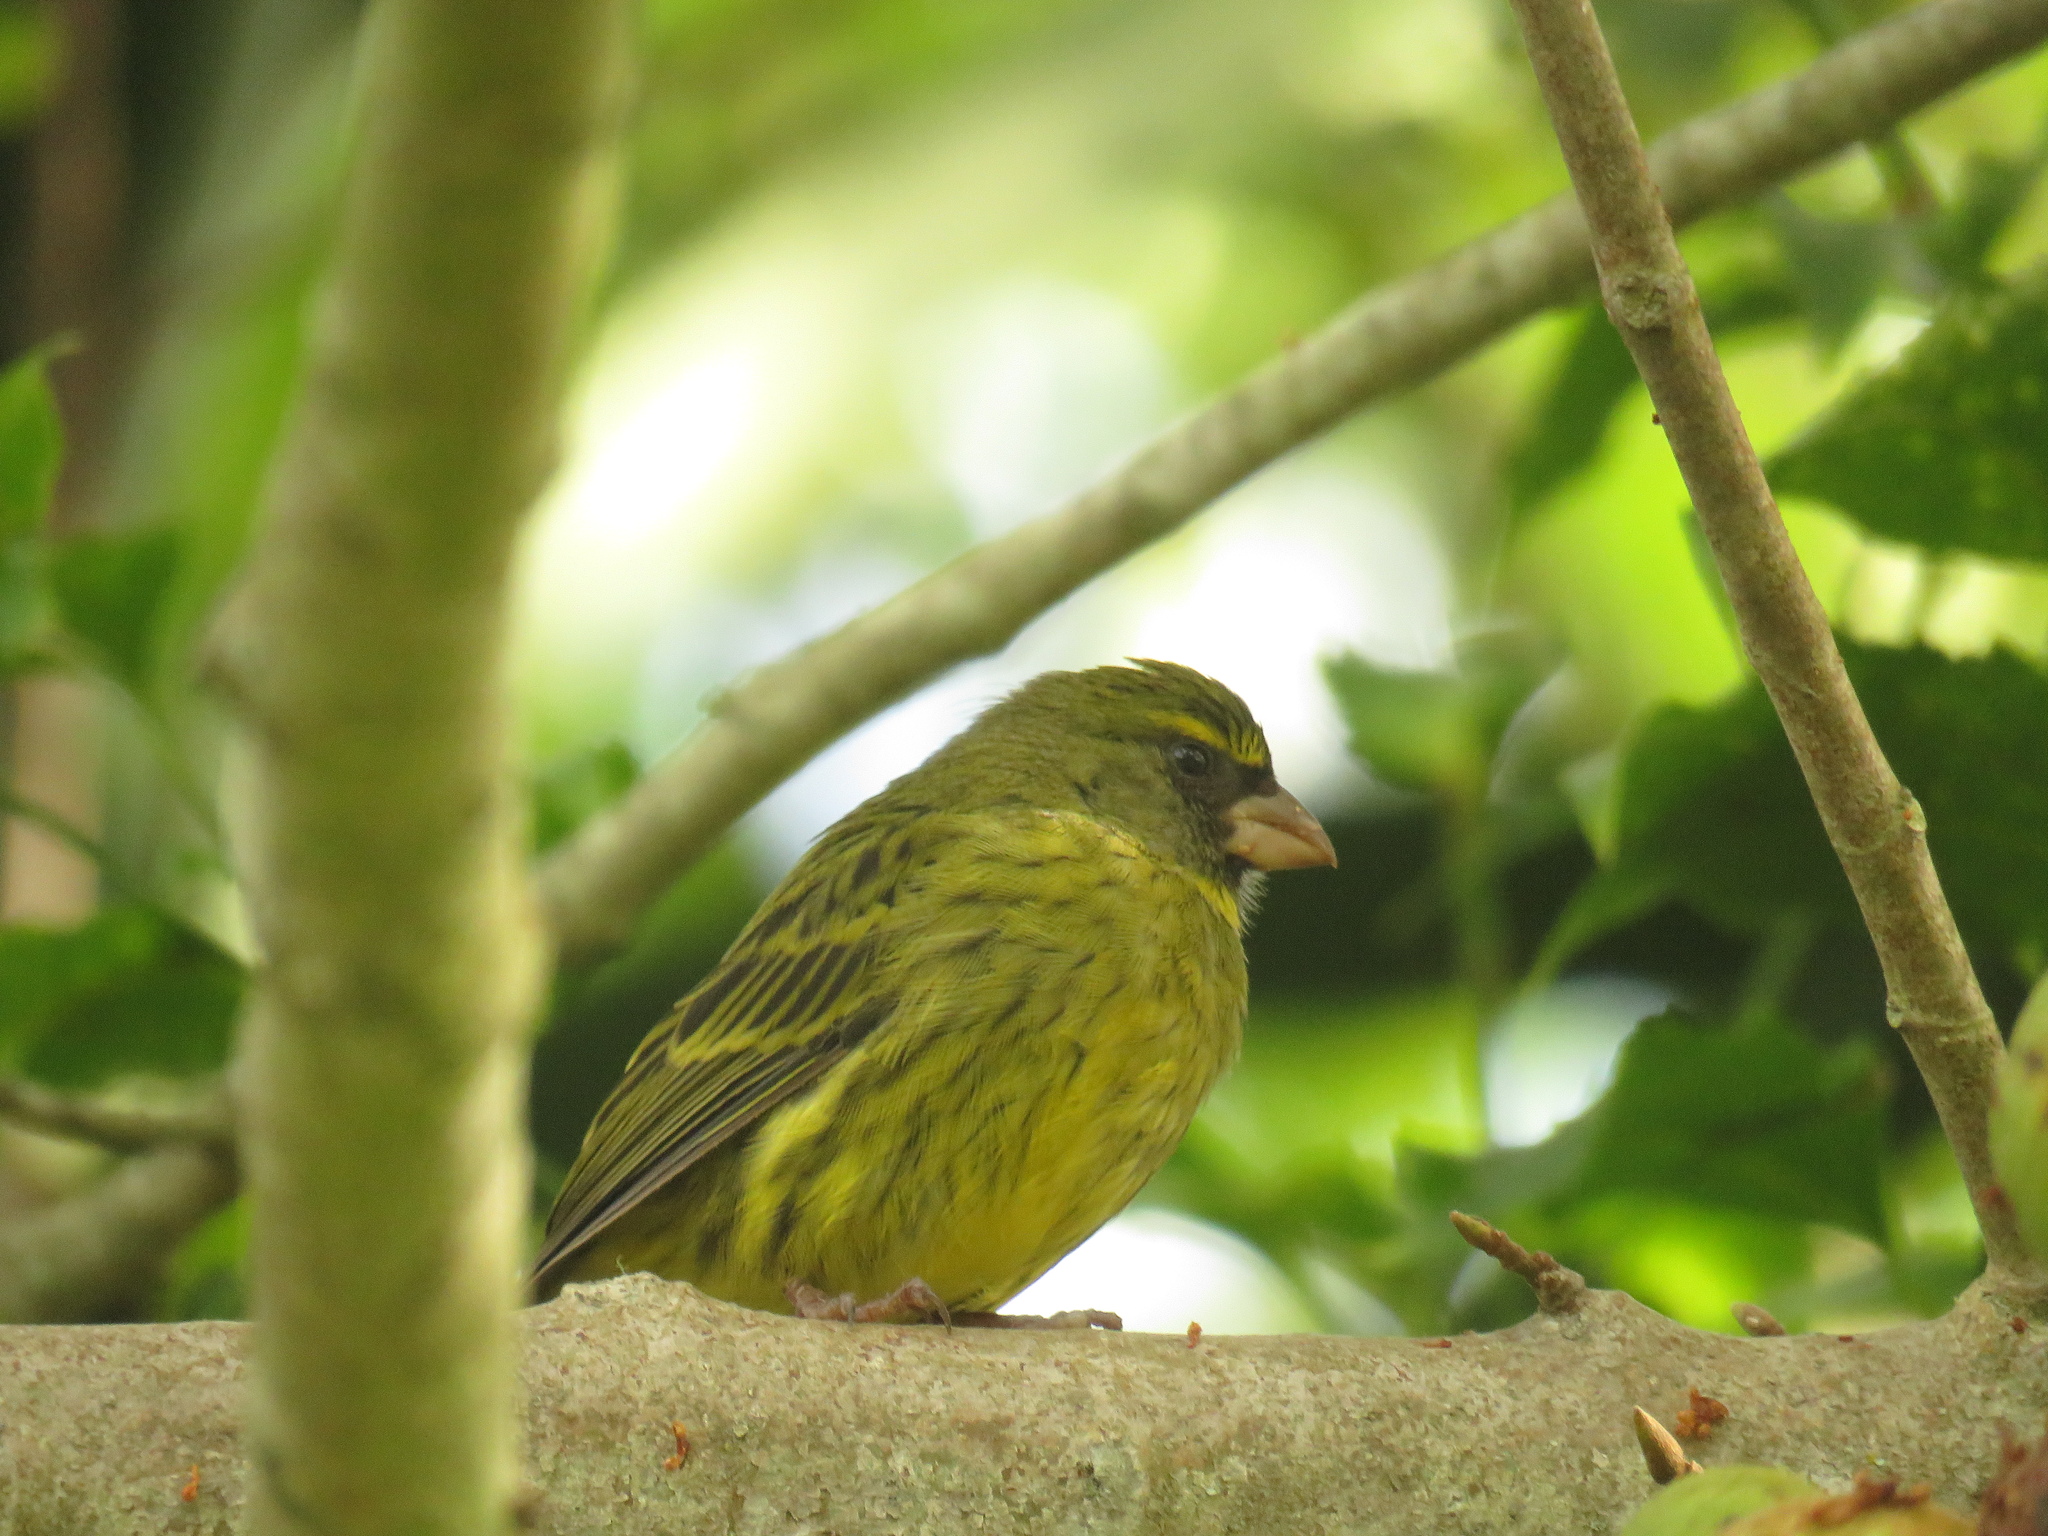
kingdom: Animalia
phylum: Chordata
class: Aves
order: Passeriformes
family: Fringillidae
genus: Crithagra
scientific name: Crithagra scotops
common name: Forest canary
